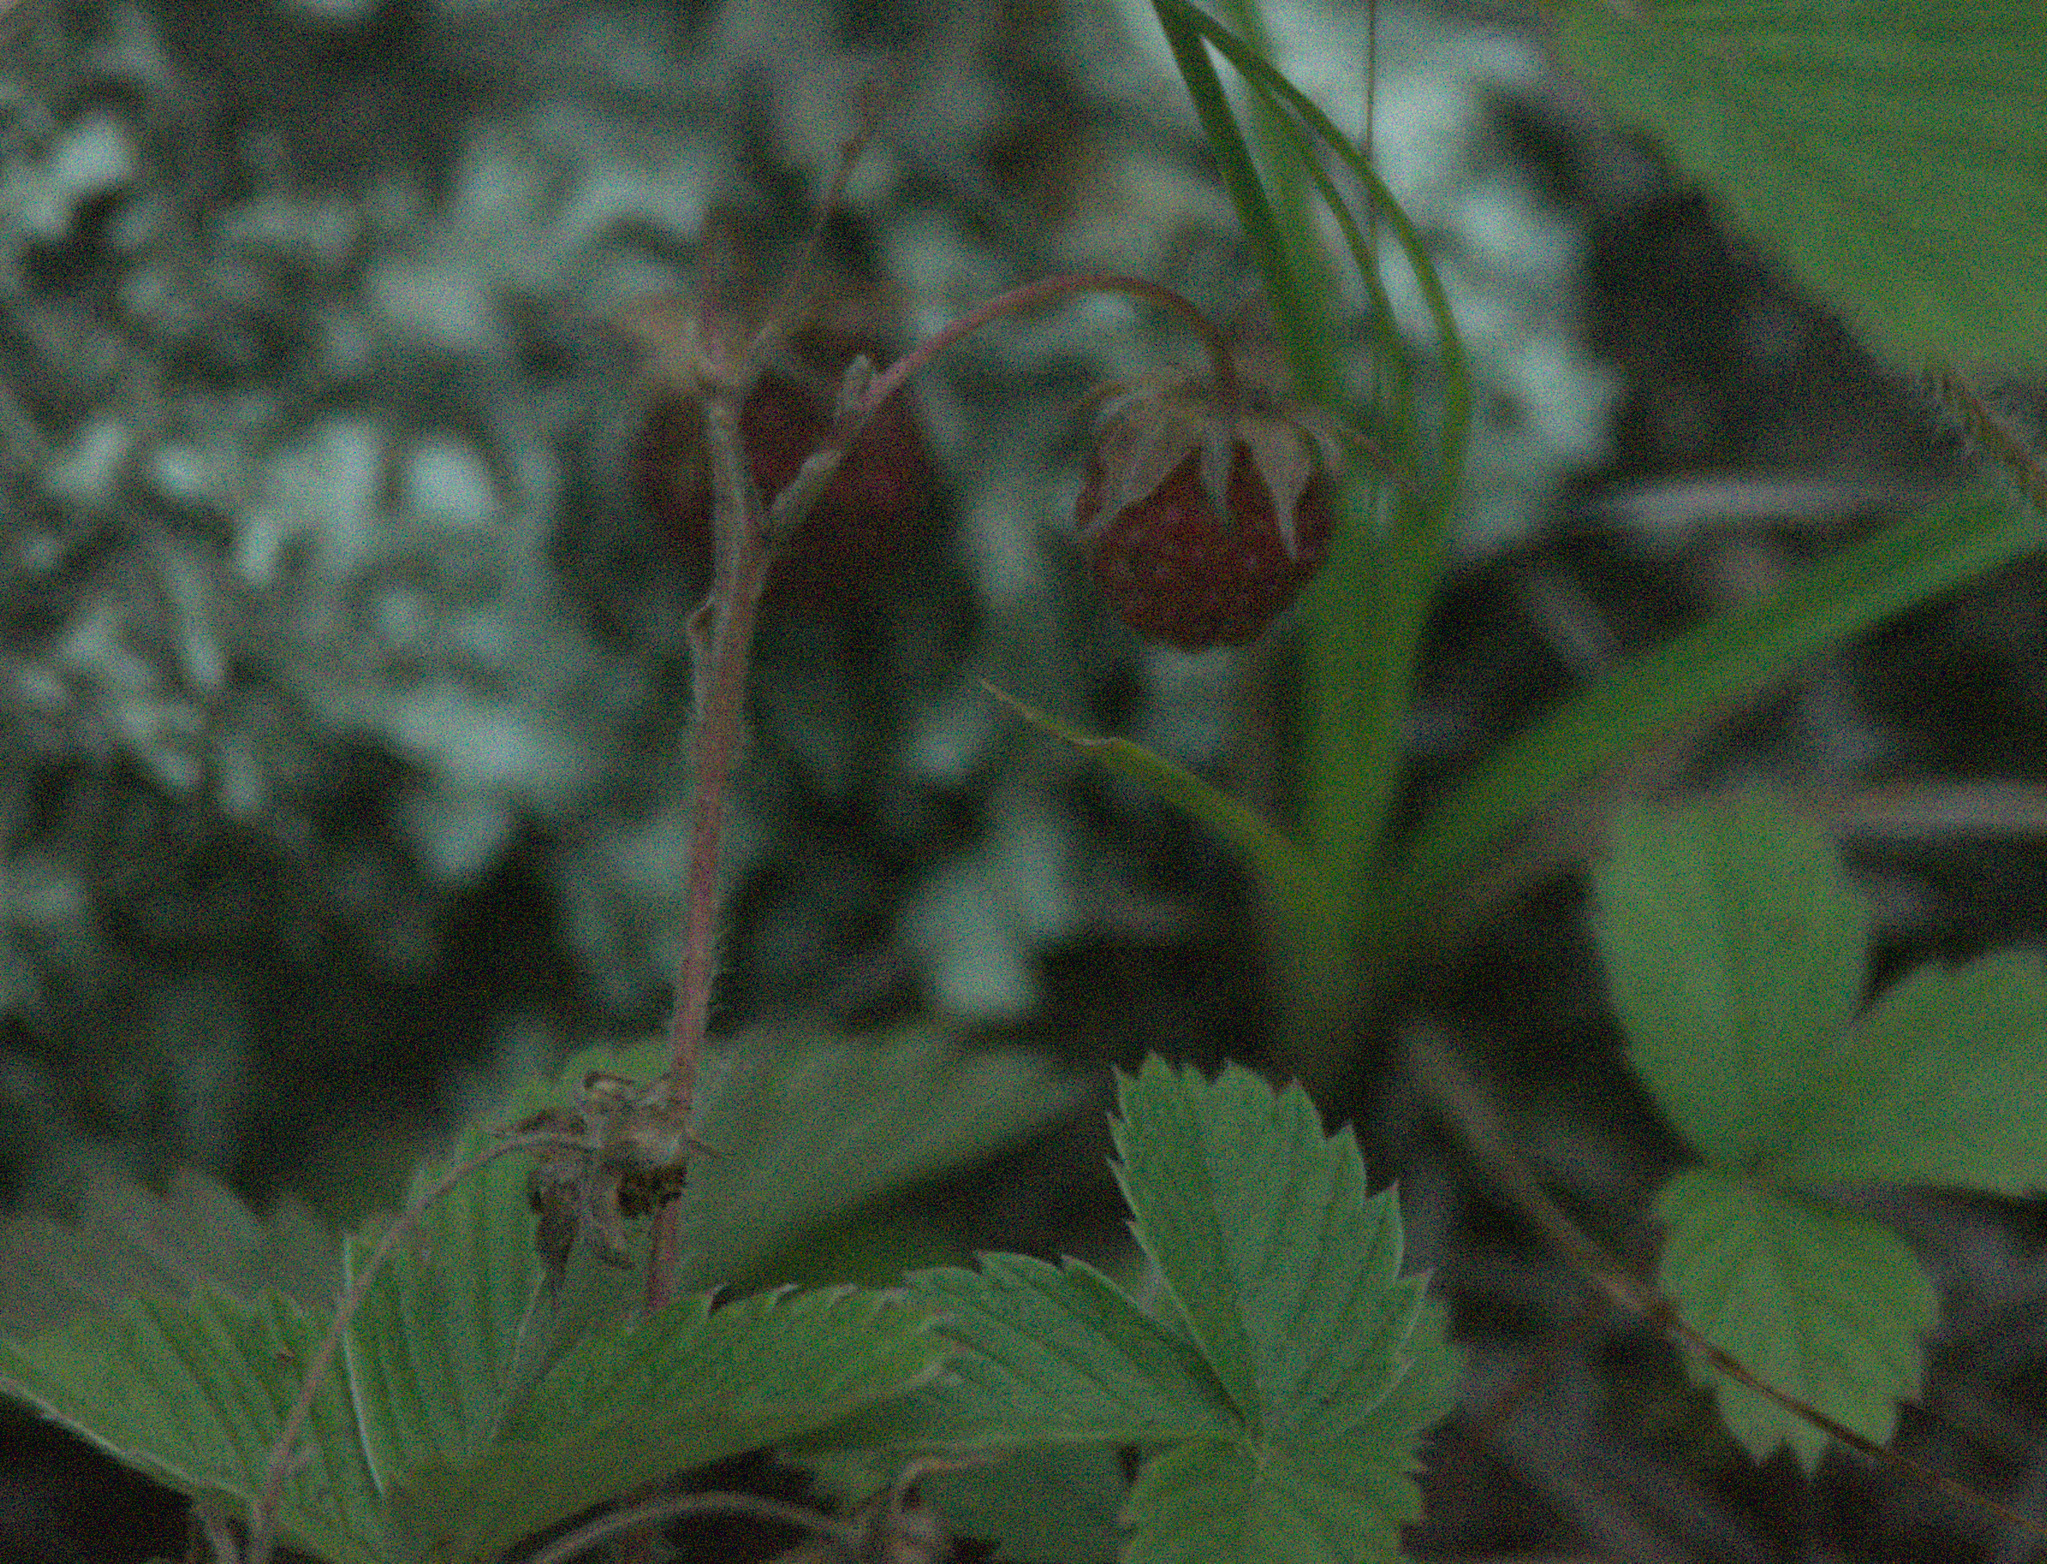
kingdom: Plantae
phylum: Tracheophyta
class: Magnoliopsida
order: Rosales
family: Rosaceae
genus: Fragaria
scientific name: Fragaria viridis
